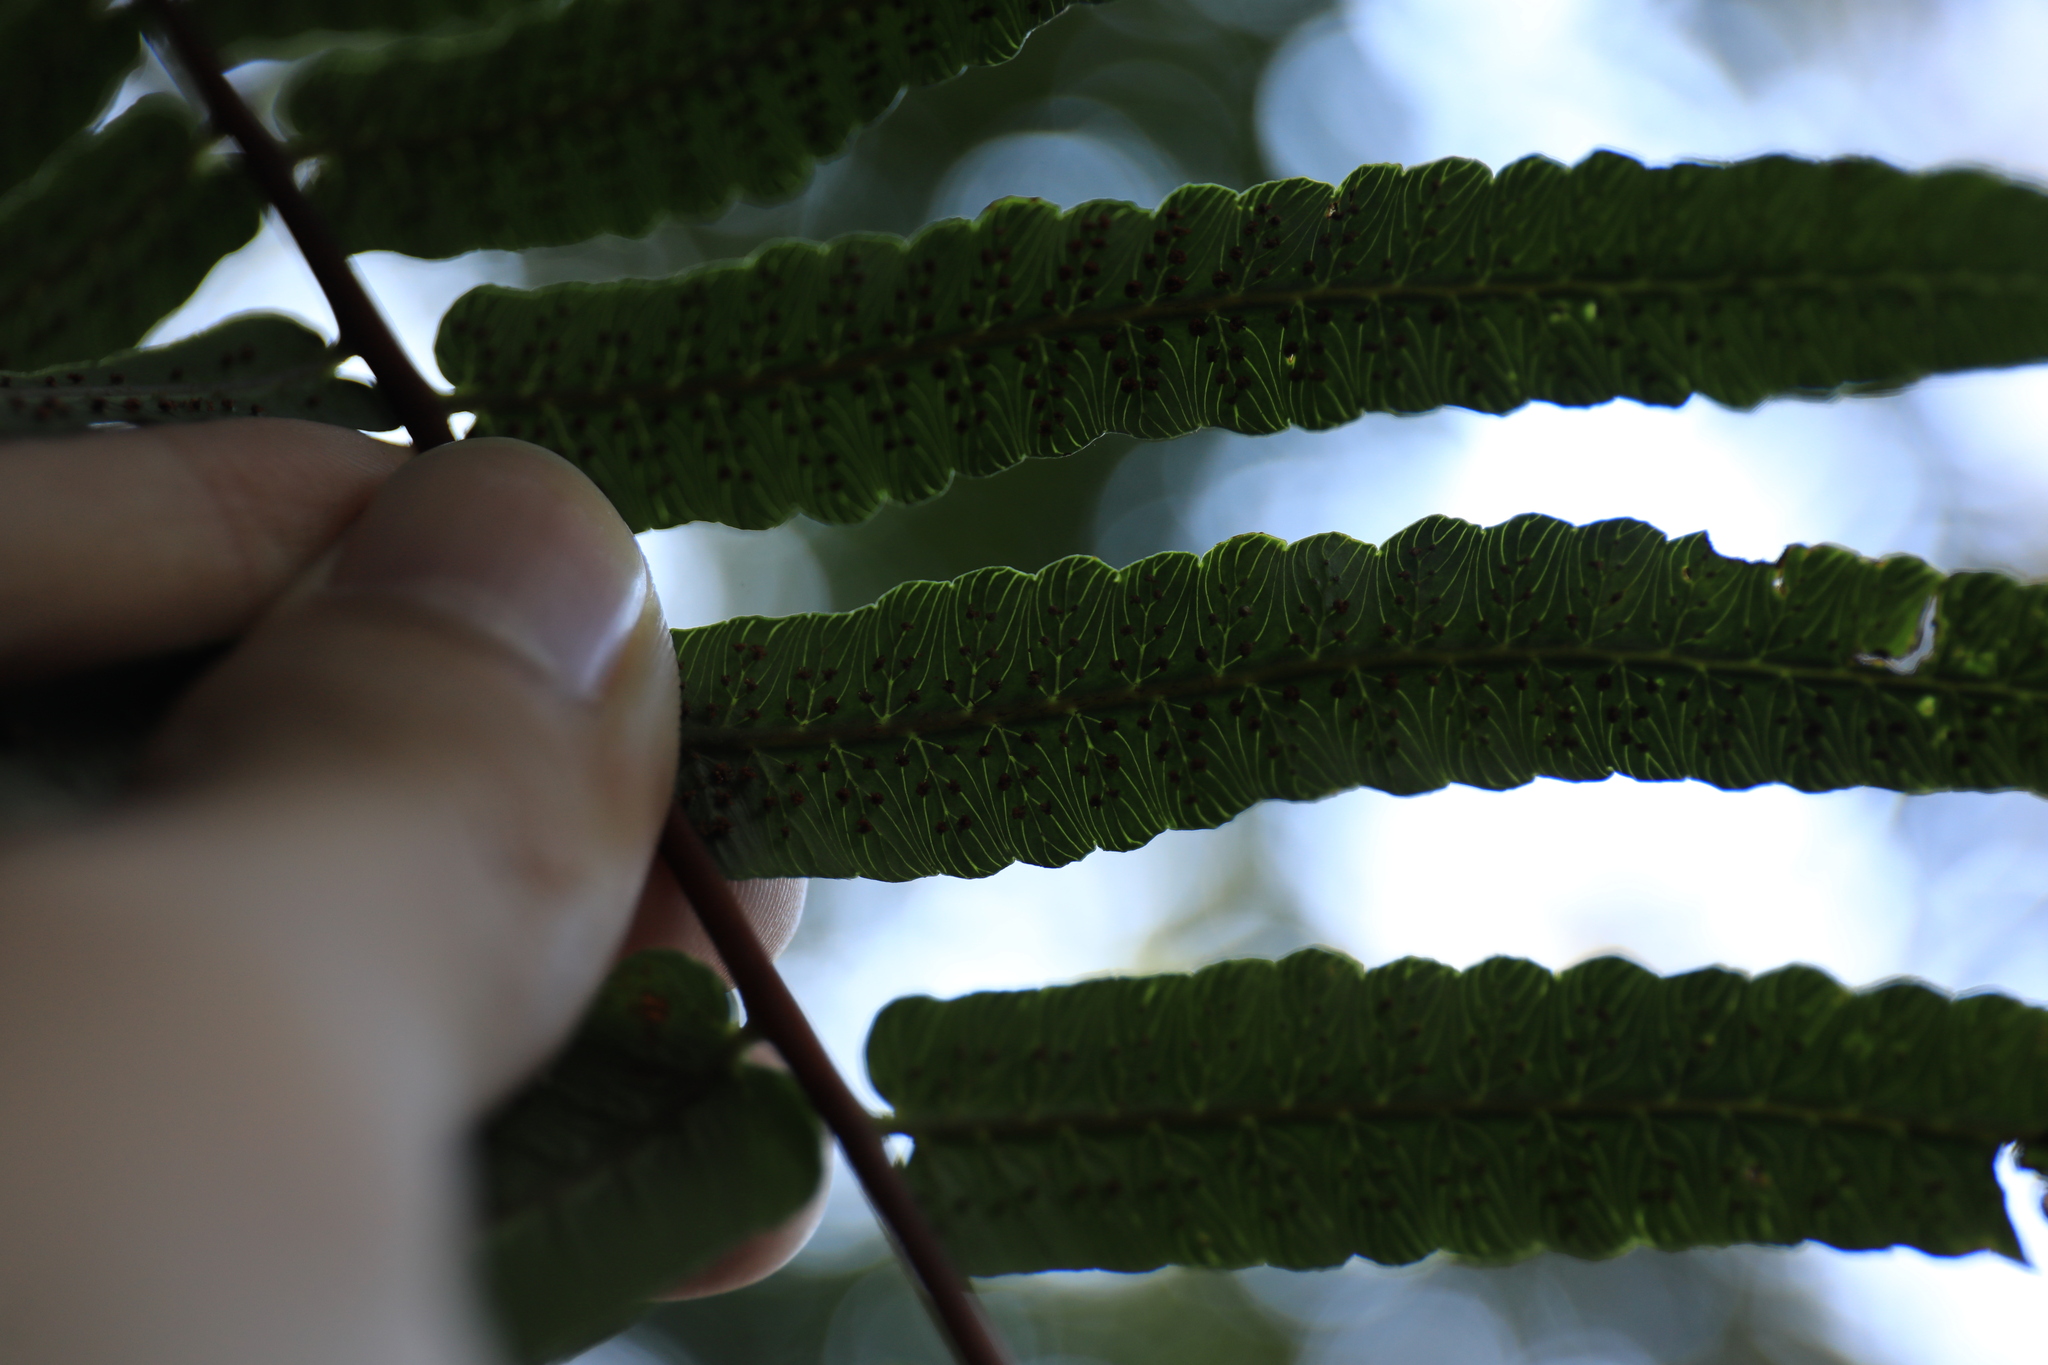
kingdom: Plantae
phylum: Tracheophyta
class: Polypodiopsida
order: Cyatheales
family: Cyatheaceae
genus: Gymnosphaera
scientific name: Gymnosphaera podophylla
